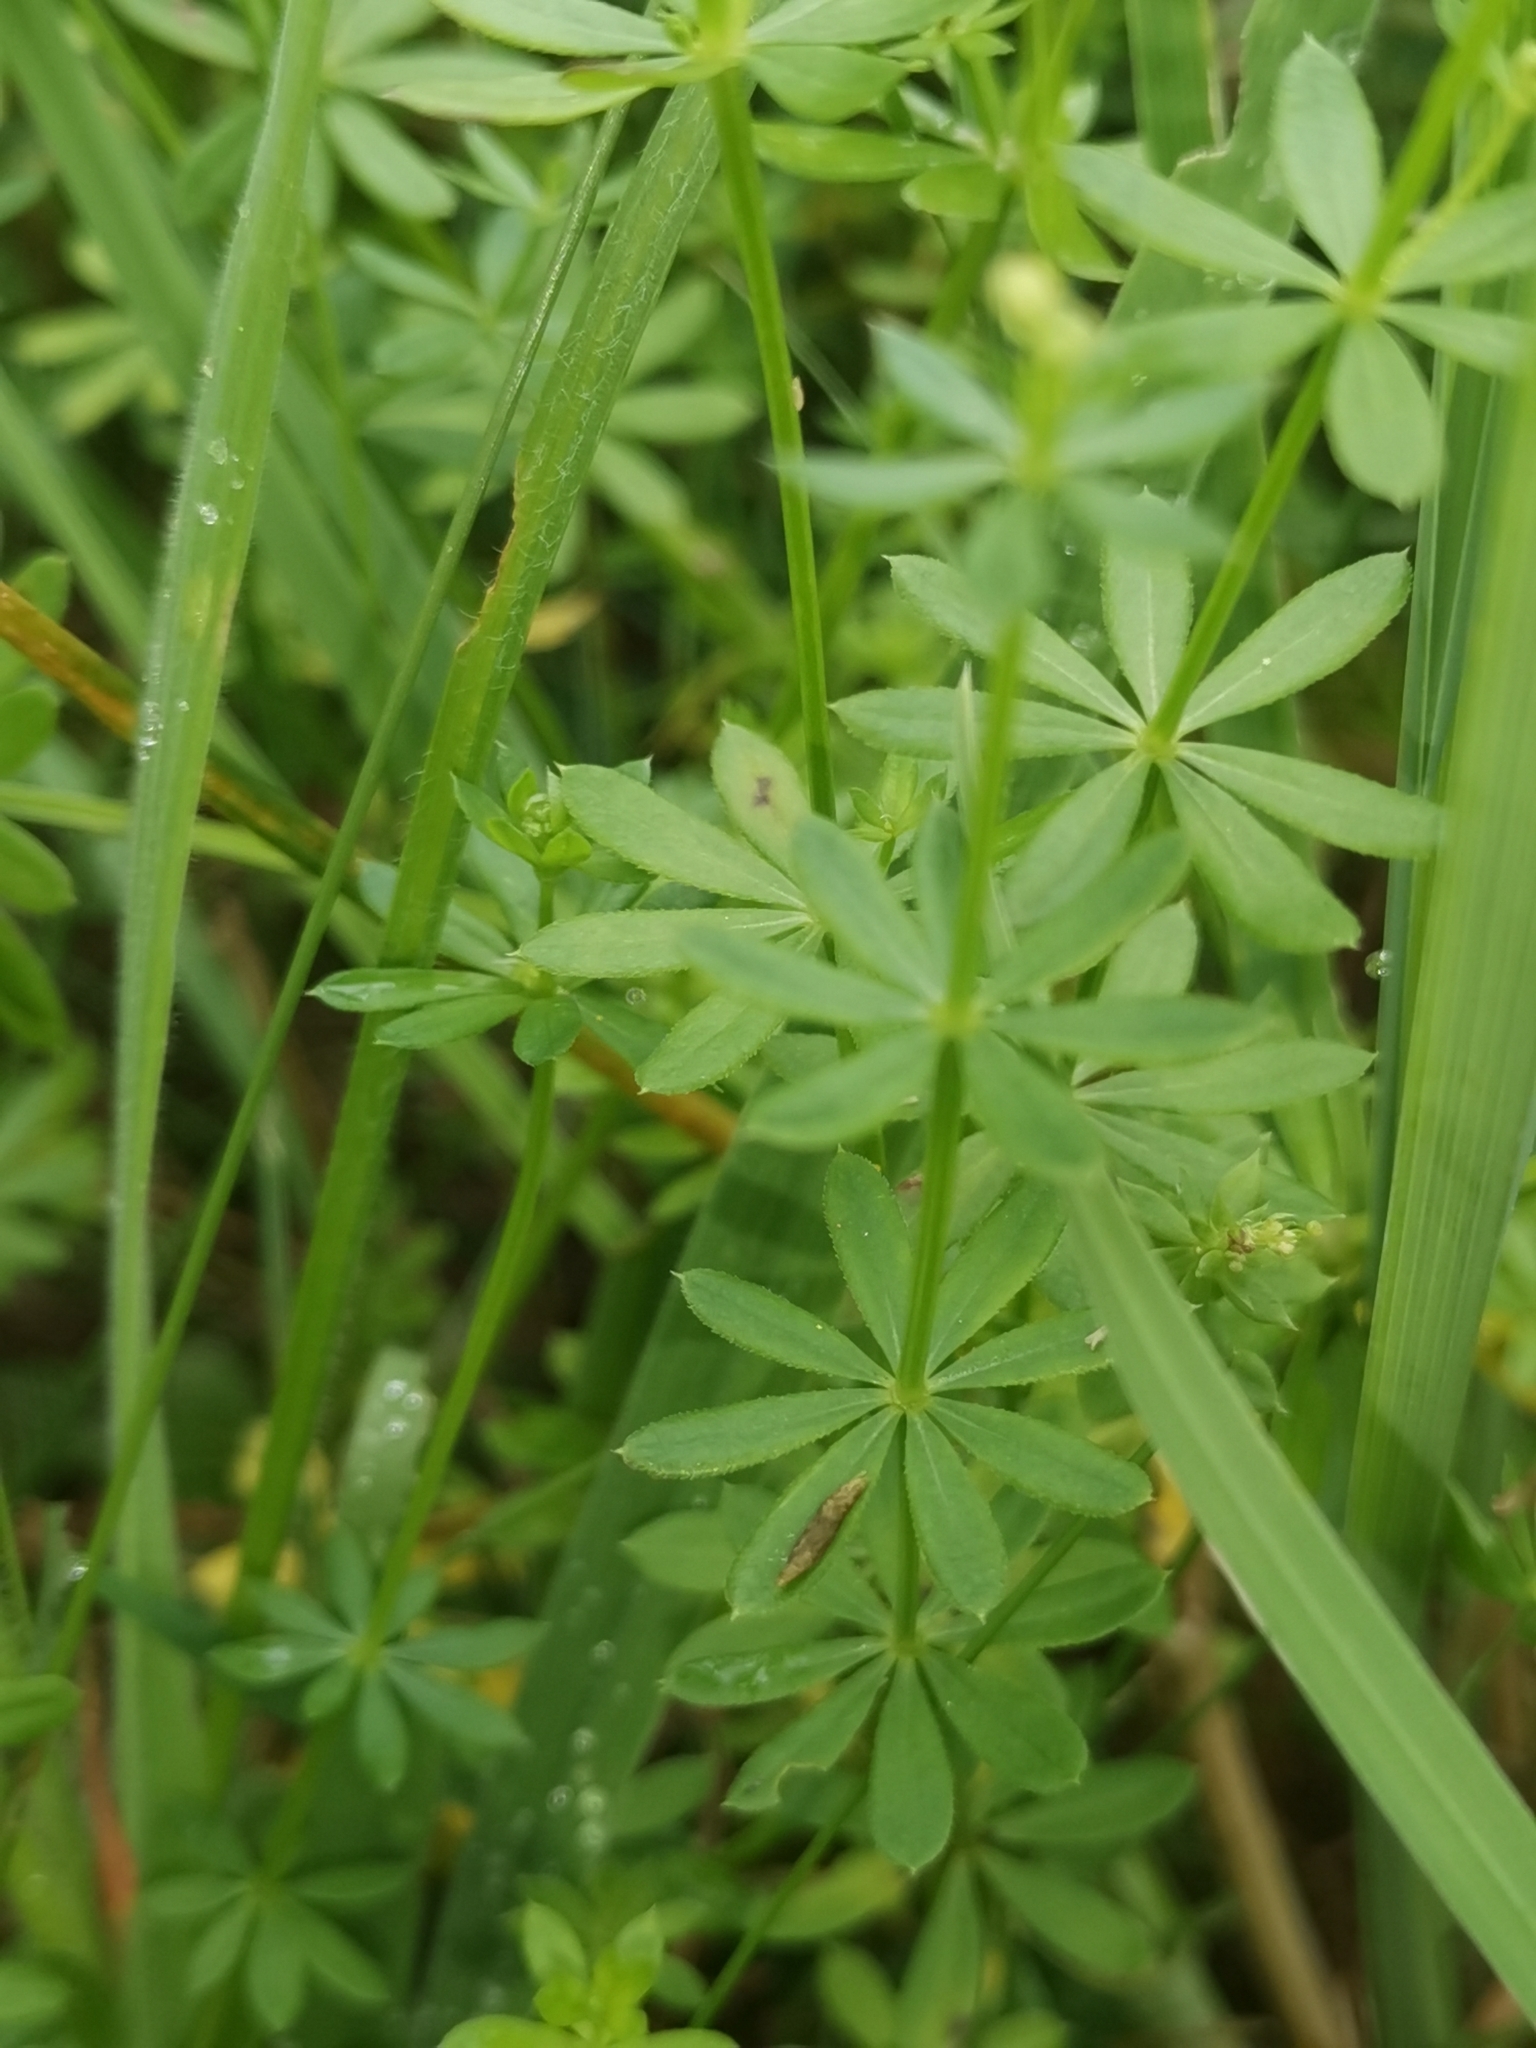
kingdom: Plantae
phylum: Tracheophyta
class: Magnoliopsida
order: Gentianales
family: Rubiaceae
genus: Galium
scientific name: Galium mollugo
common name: Hedge bedstraw
